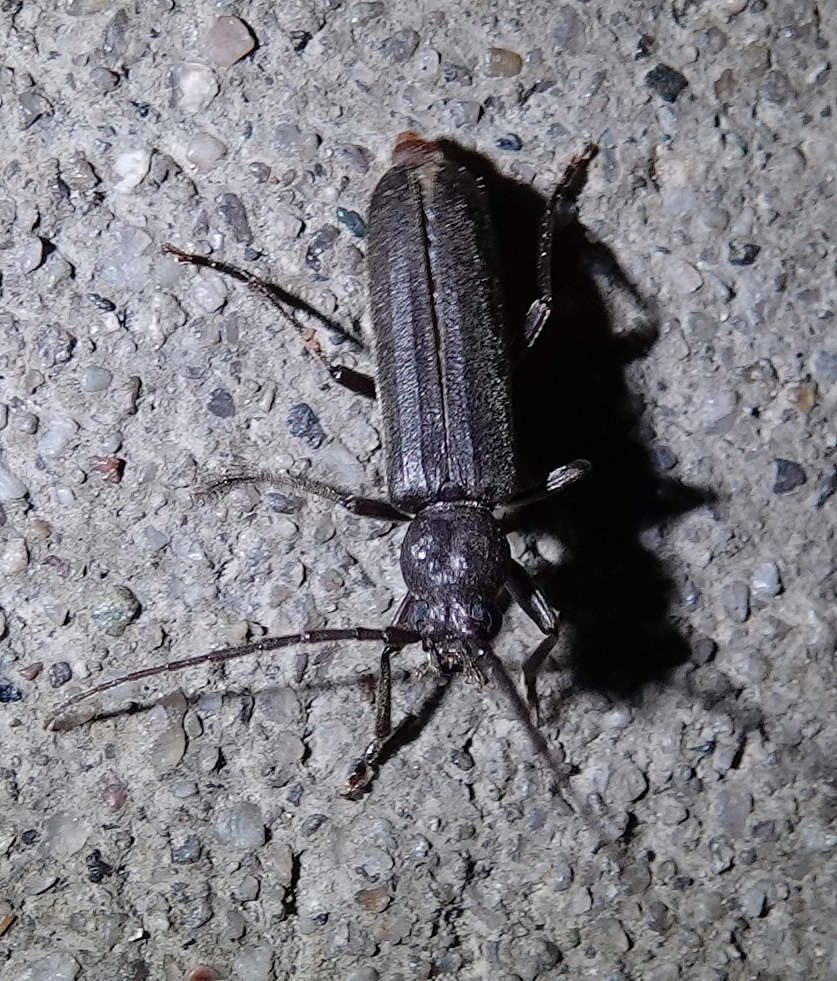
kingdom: Animalia
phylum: Arthropoda
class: Insecta
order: Coleoptera
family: Cerambycidae
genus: Arhopalus
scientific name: Arhopalus productus
